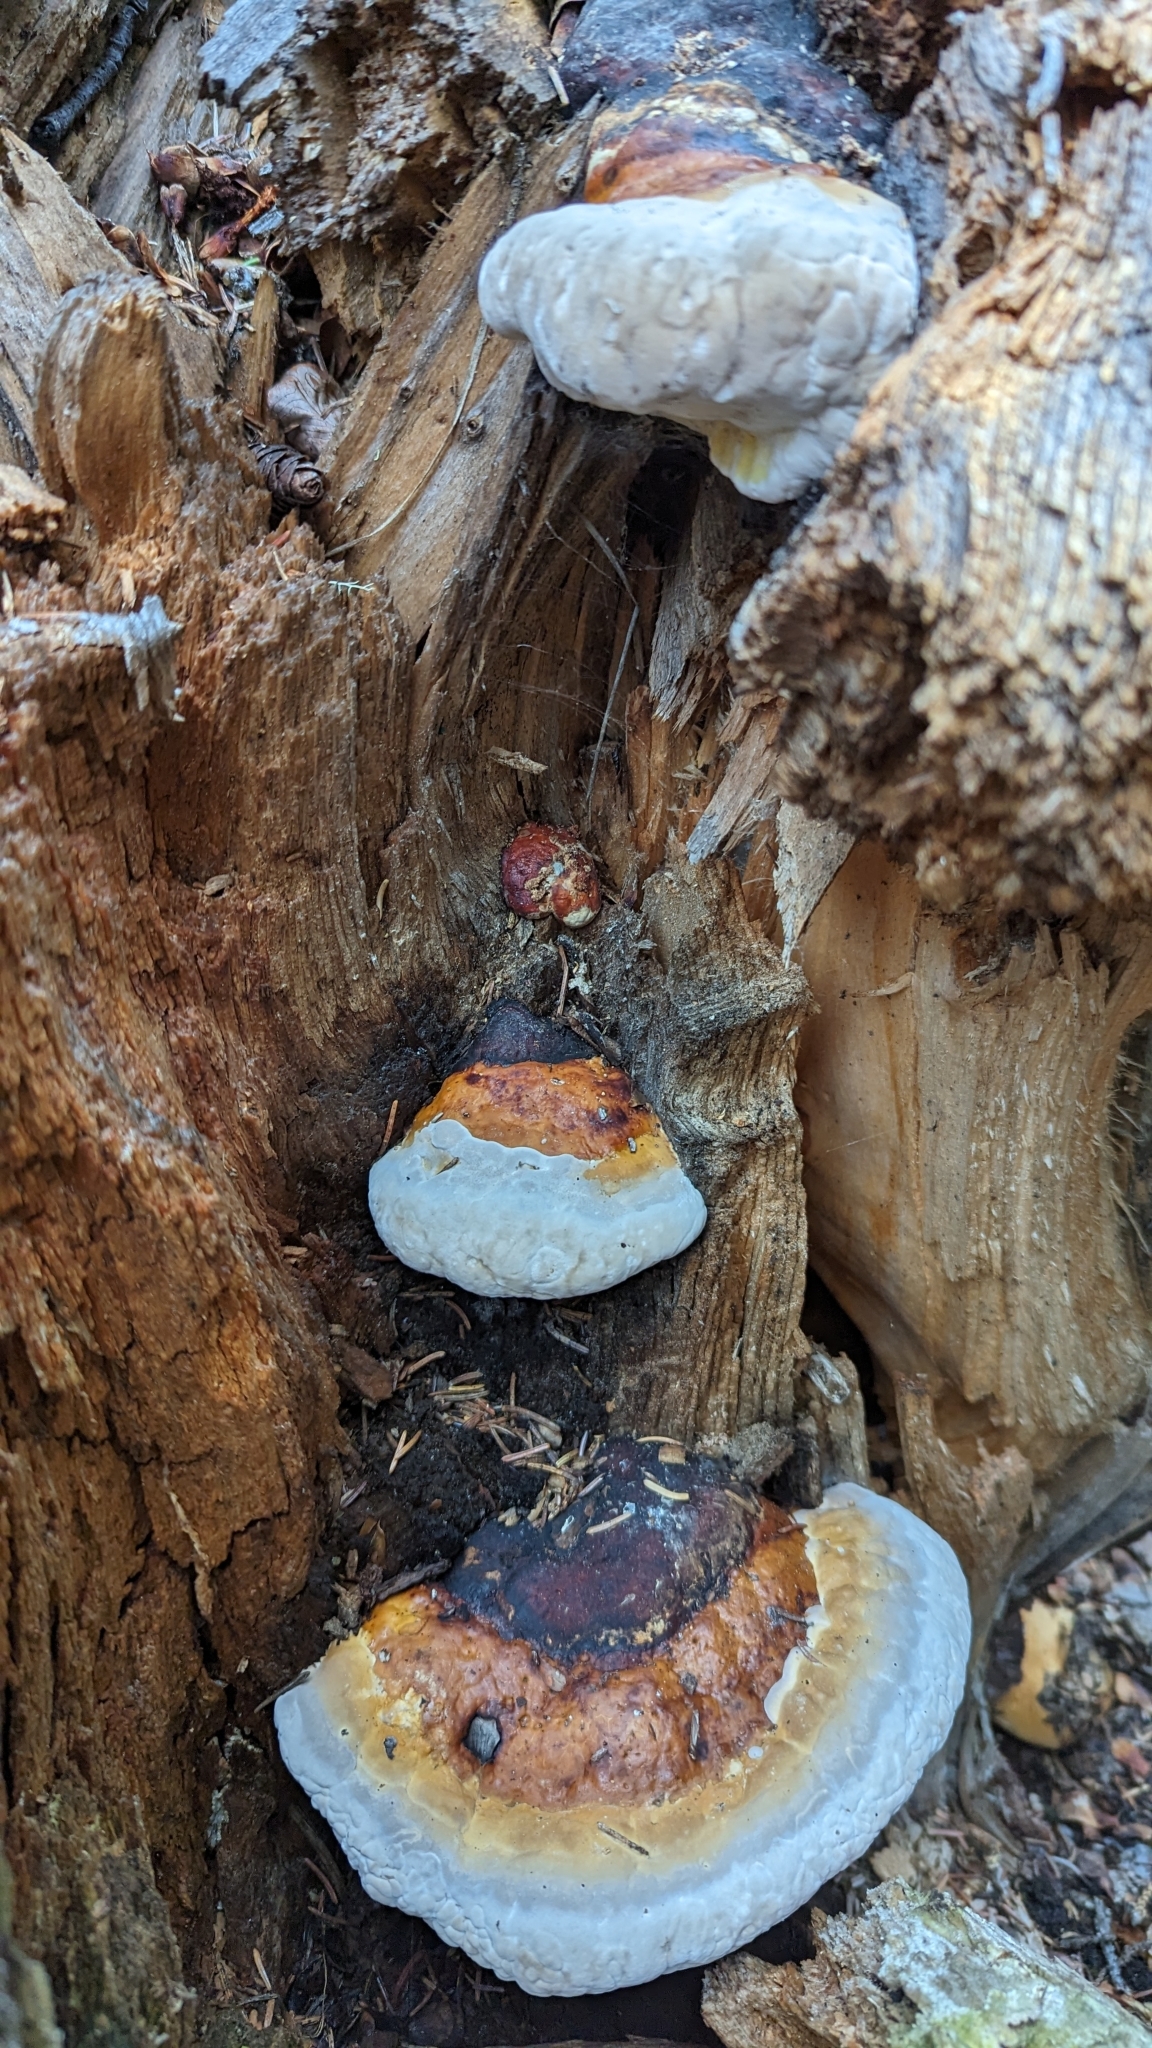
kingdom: Fungi
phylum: Basidiomycota
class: Agaricomycetes
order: Polyporales
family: Fomitopsidaceae
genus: Fomitopsis
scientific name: Fomitopsis mounceae
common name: Northern red belt
